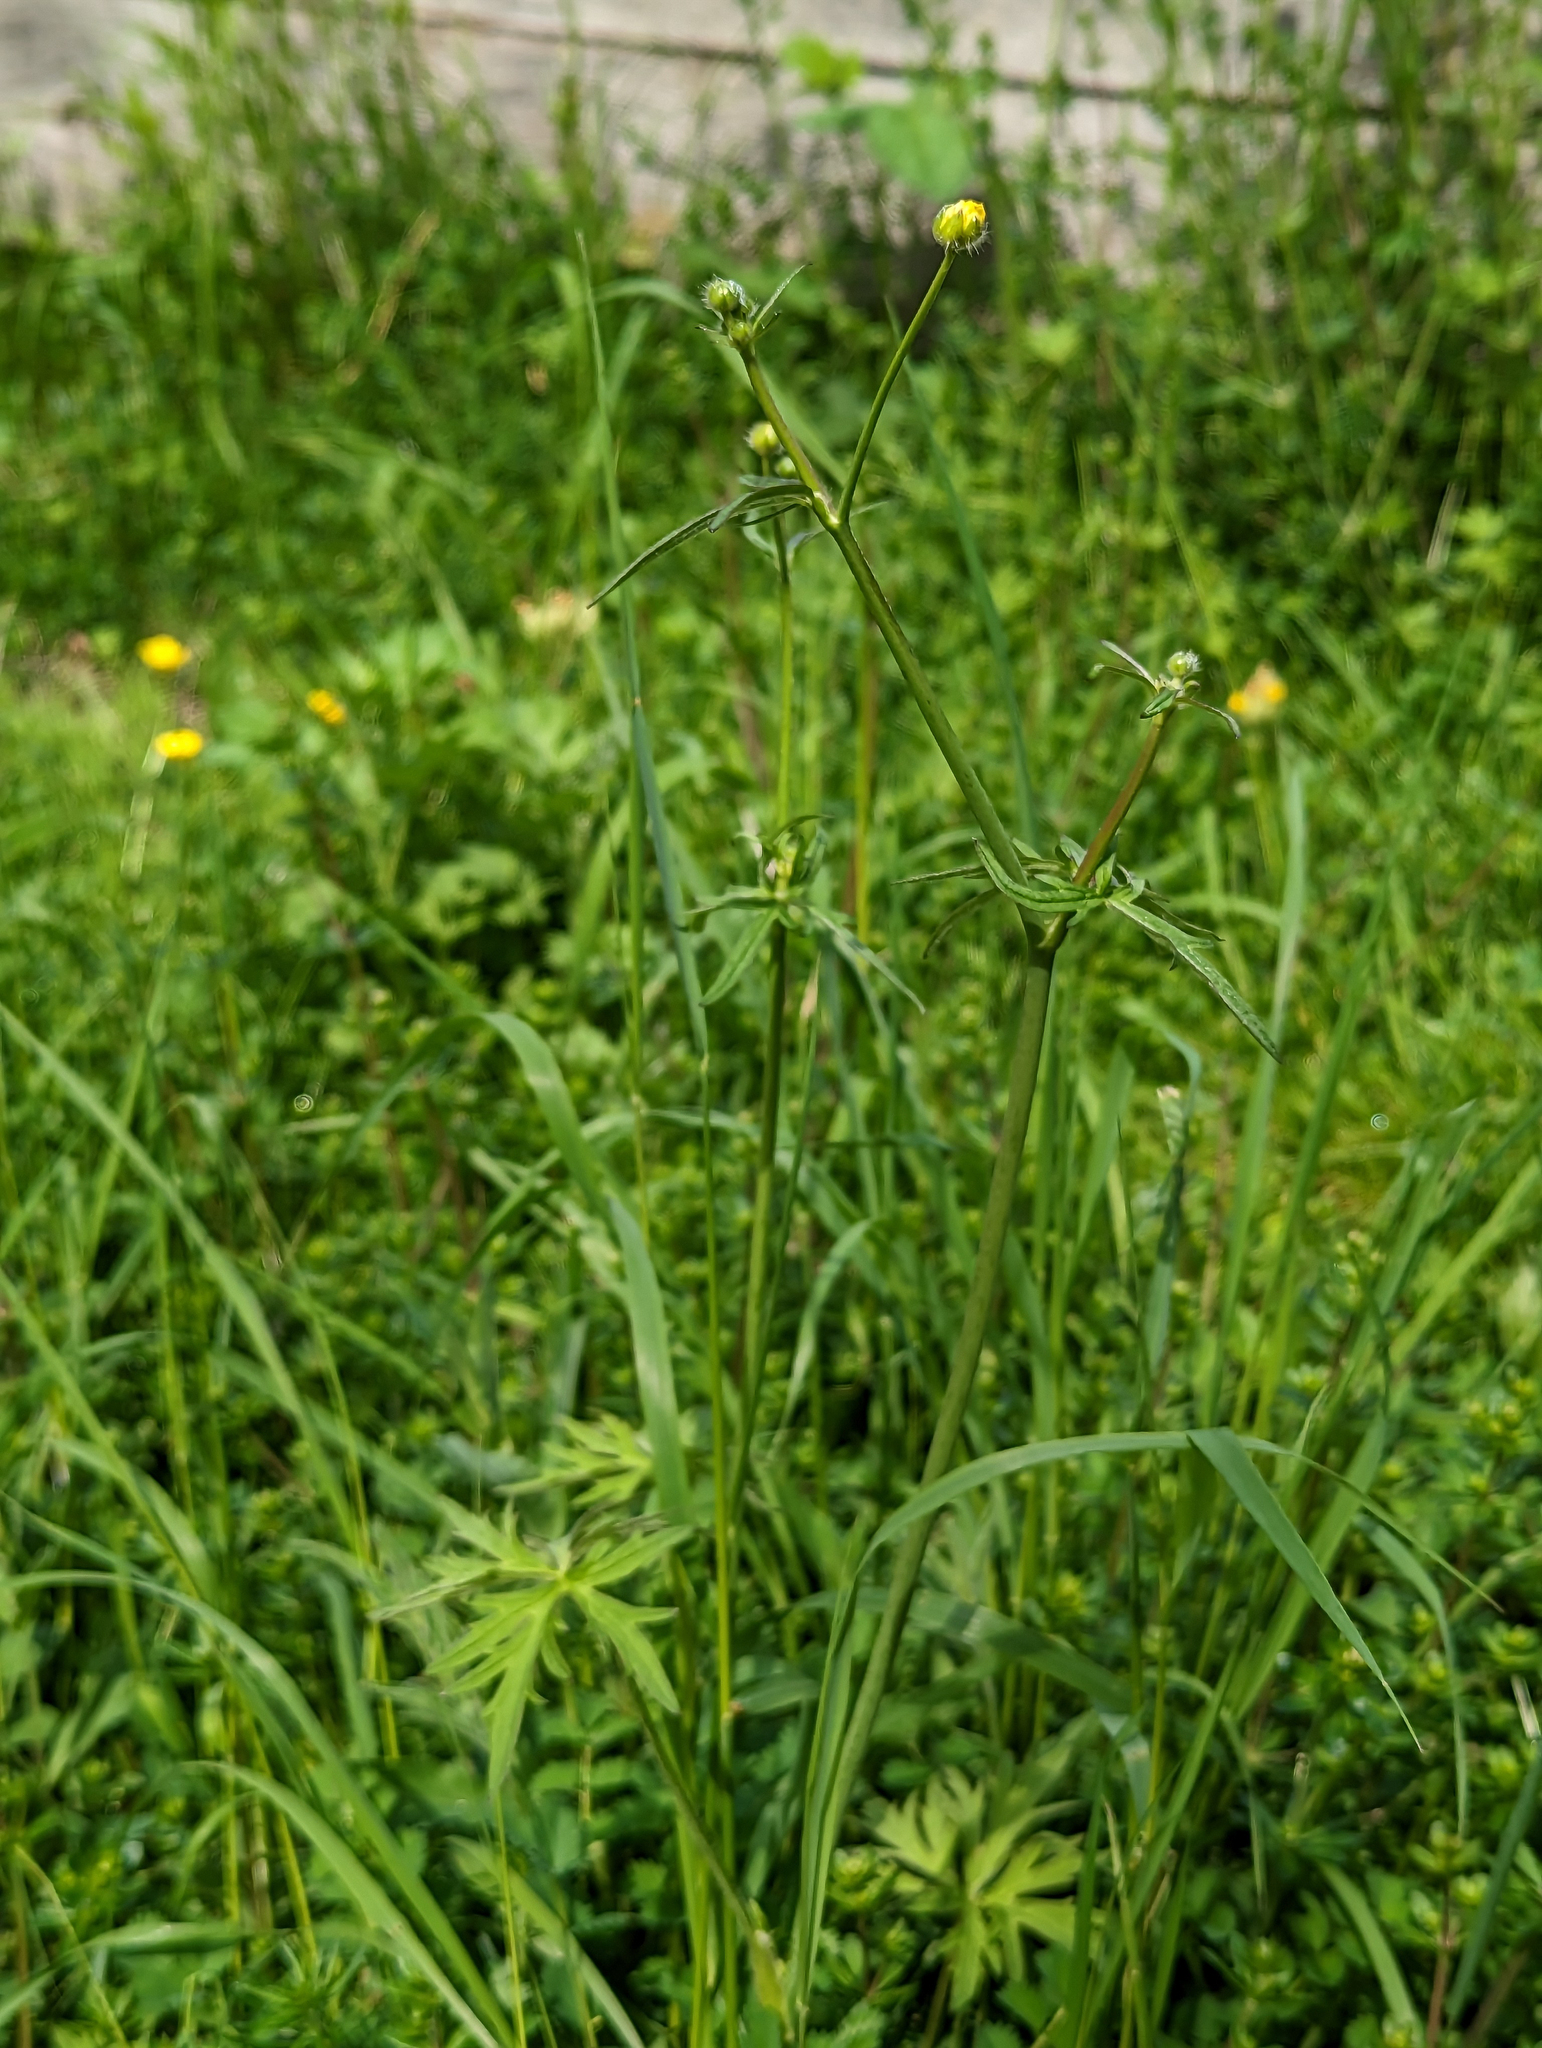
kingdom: Plantae
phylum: Tracheophyta
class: Magnoliopsida
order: Ranunculales
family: Ranunculaceae
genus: Ranunculus
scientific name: Ranunculus acris
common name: Meadow buttercup
